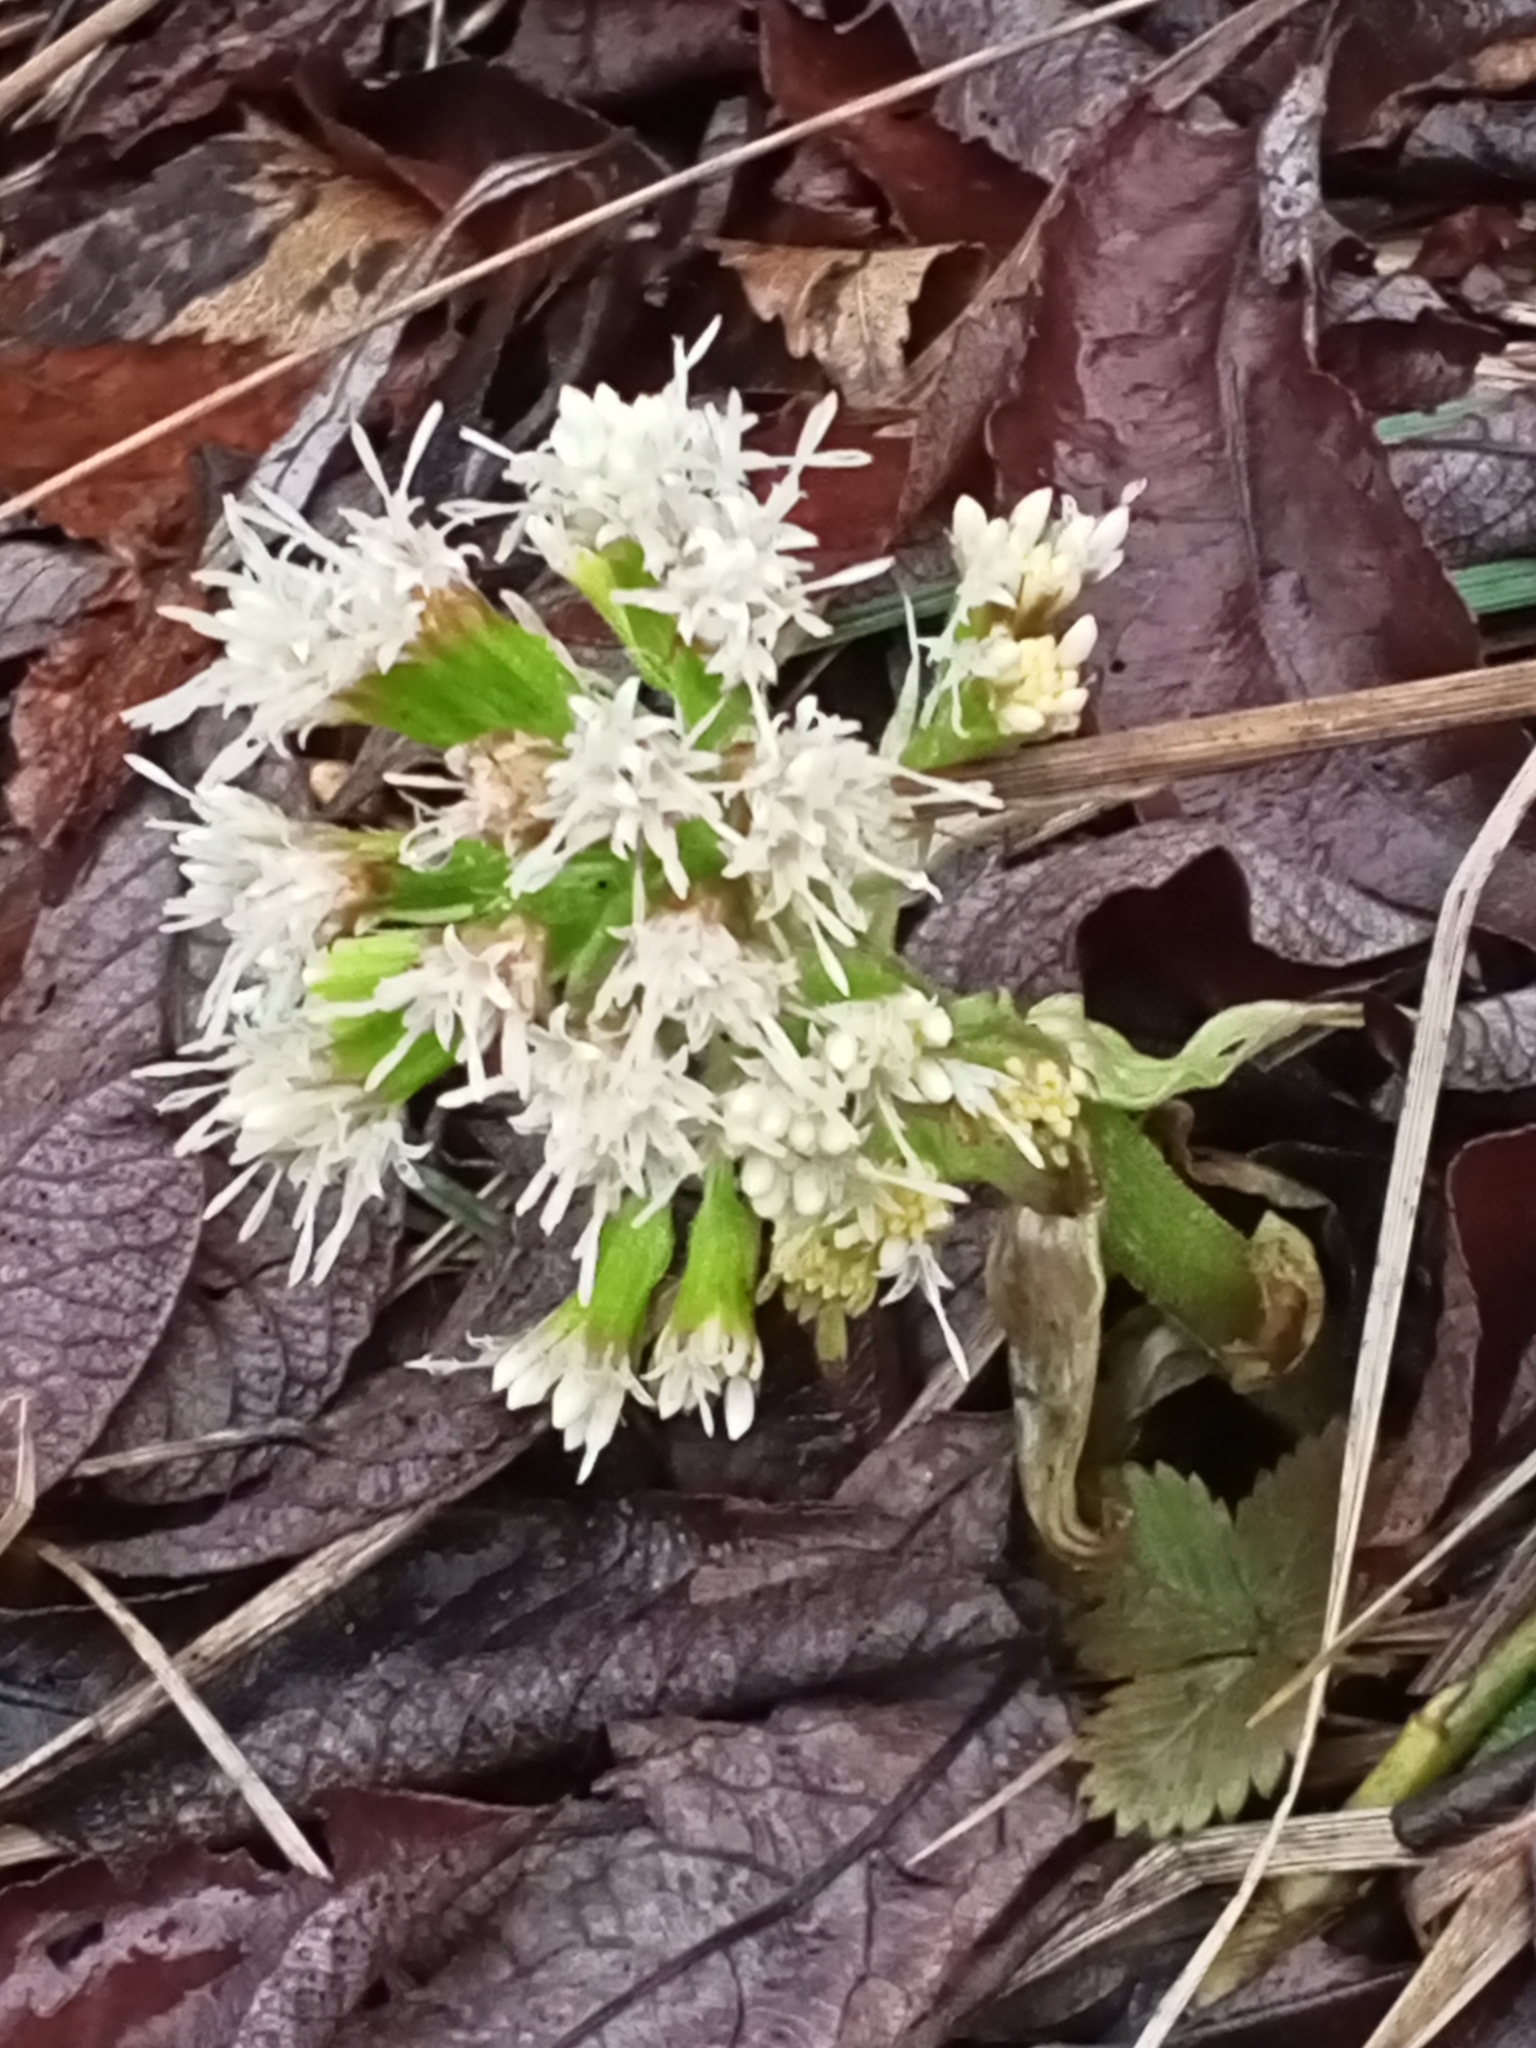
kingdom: Plantae
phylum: Tracheophyta
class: Magnoliopsida
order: Asterales
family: Asteraceae
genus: Petasites
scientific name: Petasites albus
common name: White butterbur
